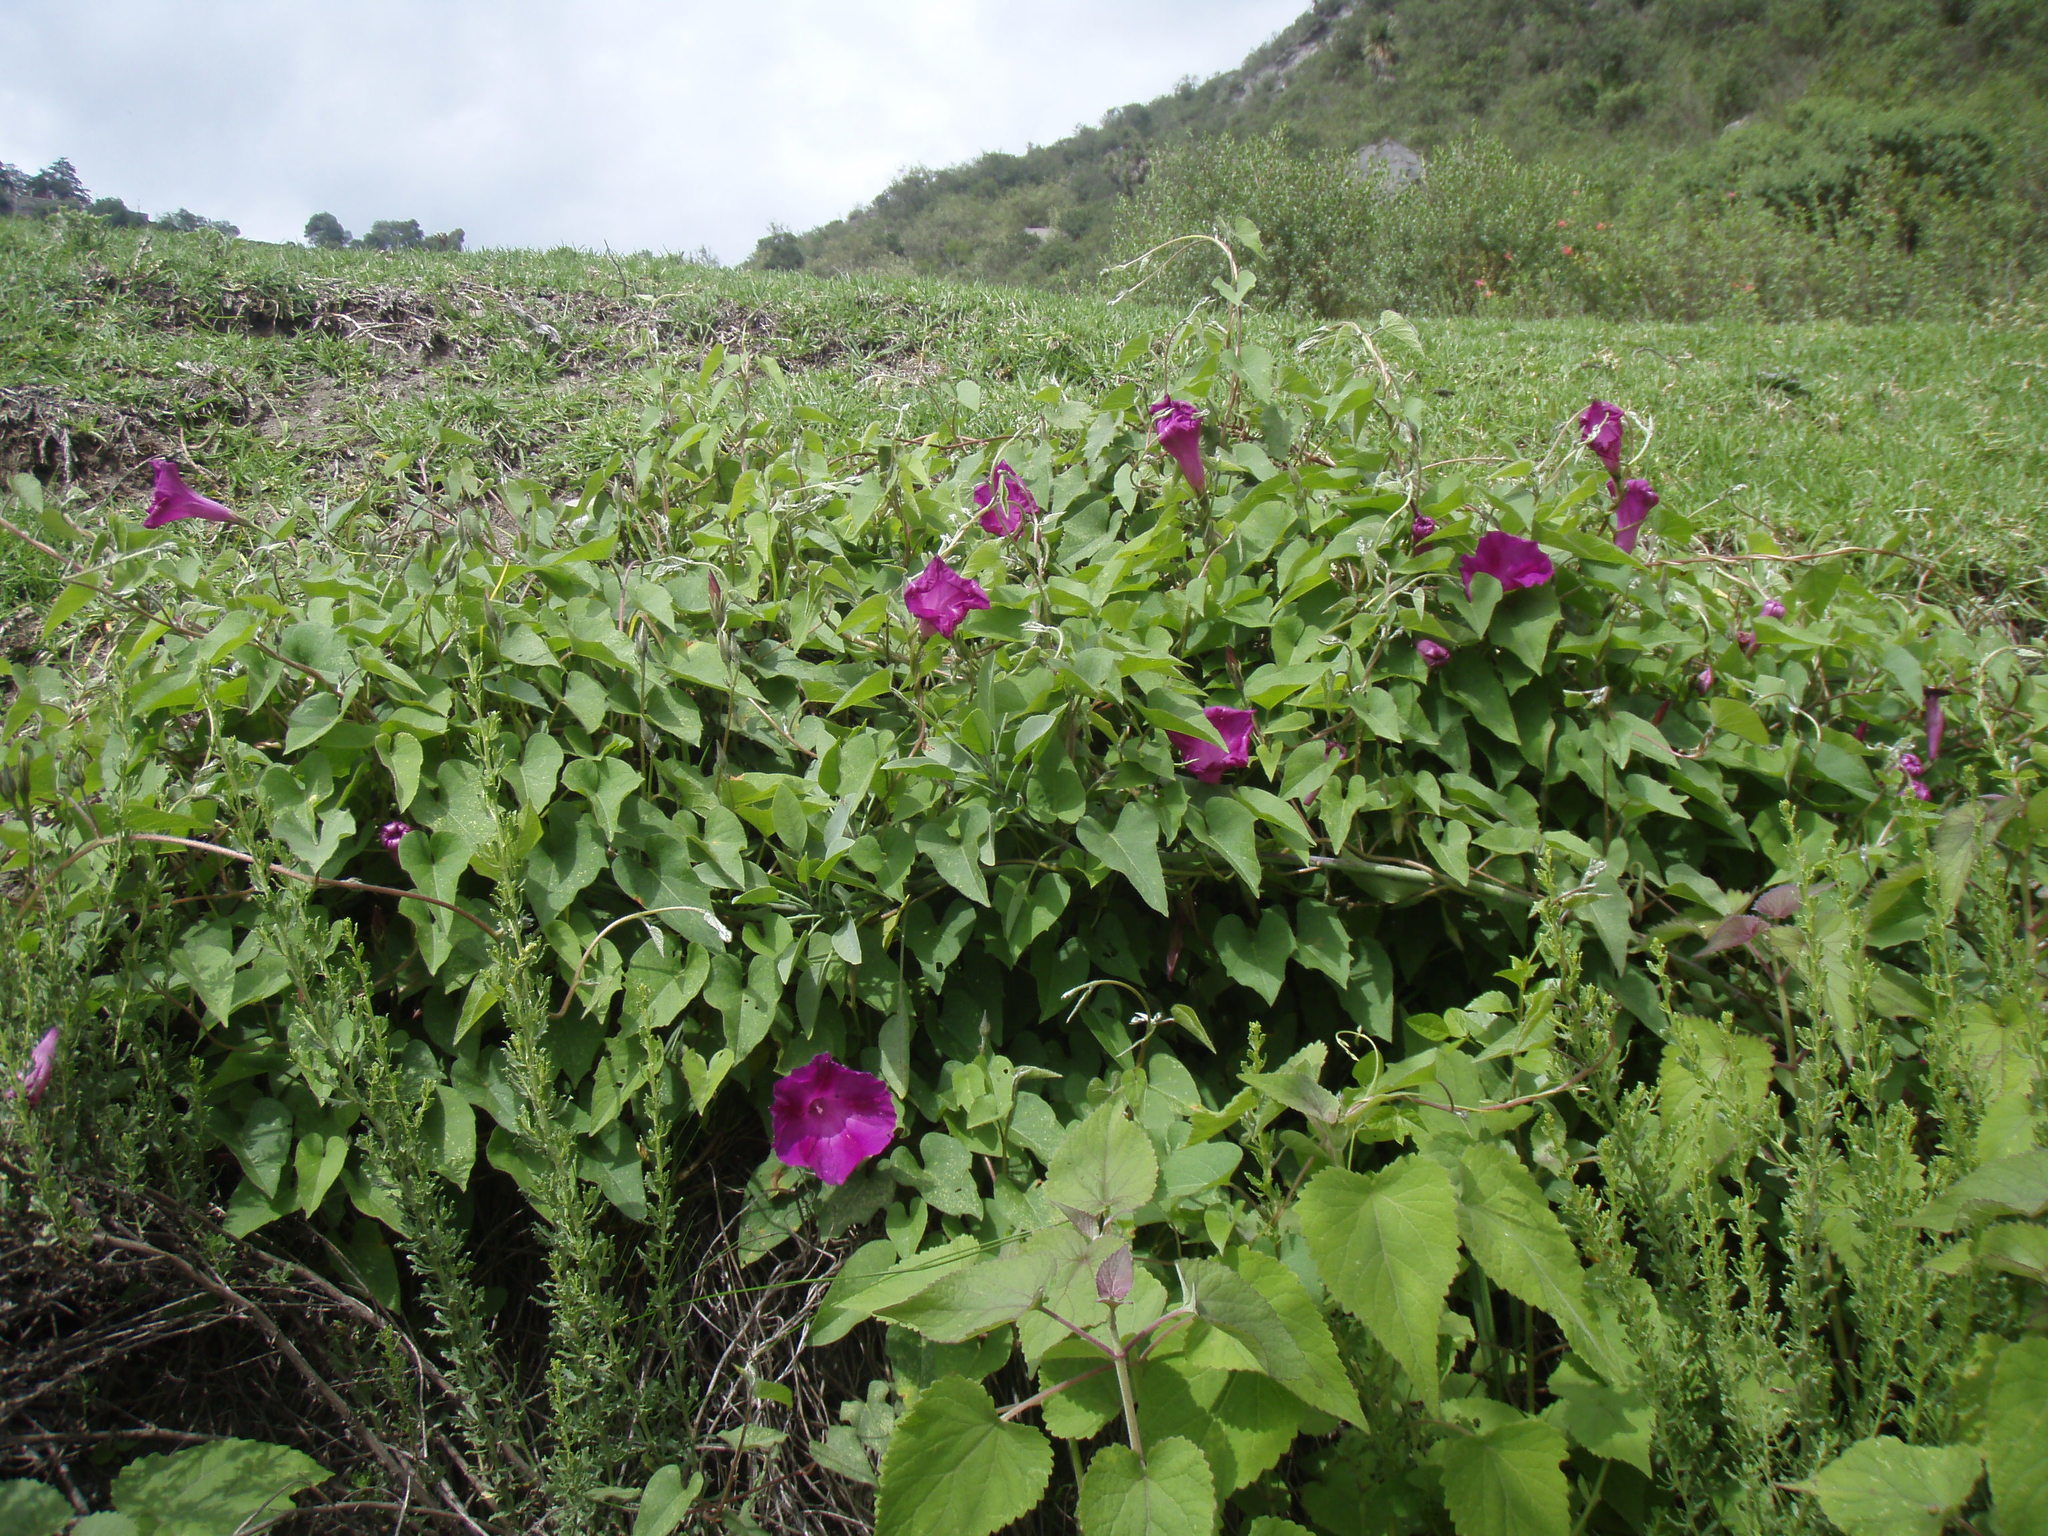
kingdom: Plantae
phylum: Tracheophyta
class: Magnoliopsida
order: Solanales
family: Convolvulaceae
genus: Ipomoea
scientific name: Ipomoea orizabensis
